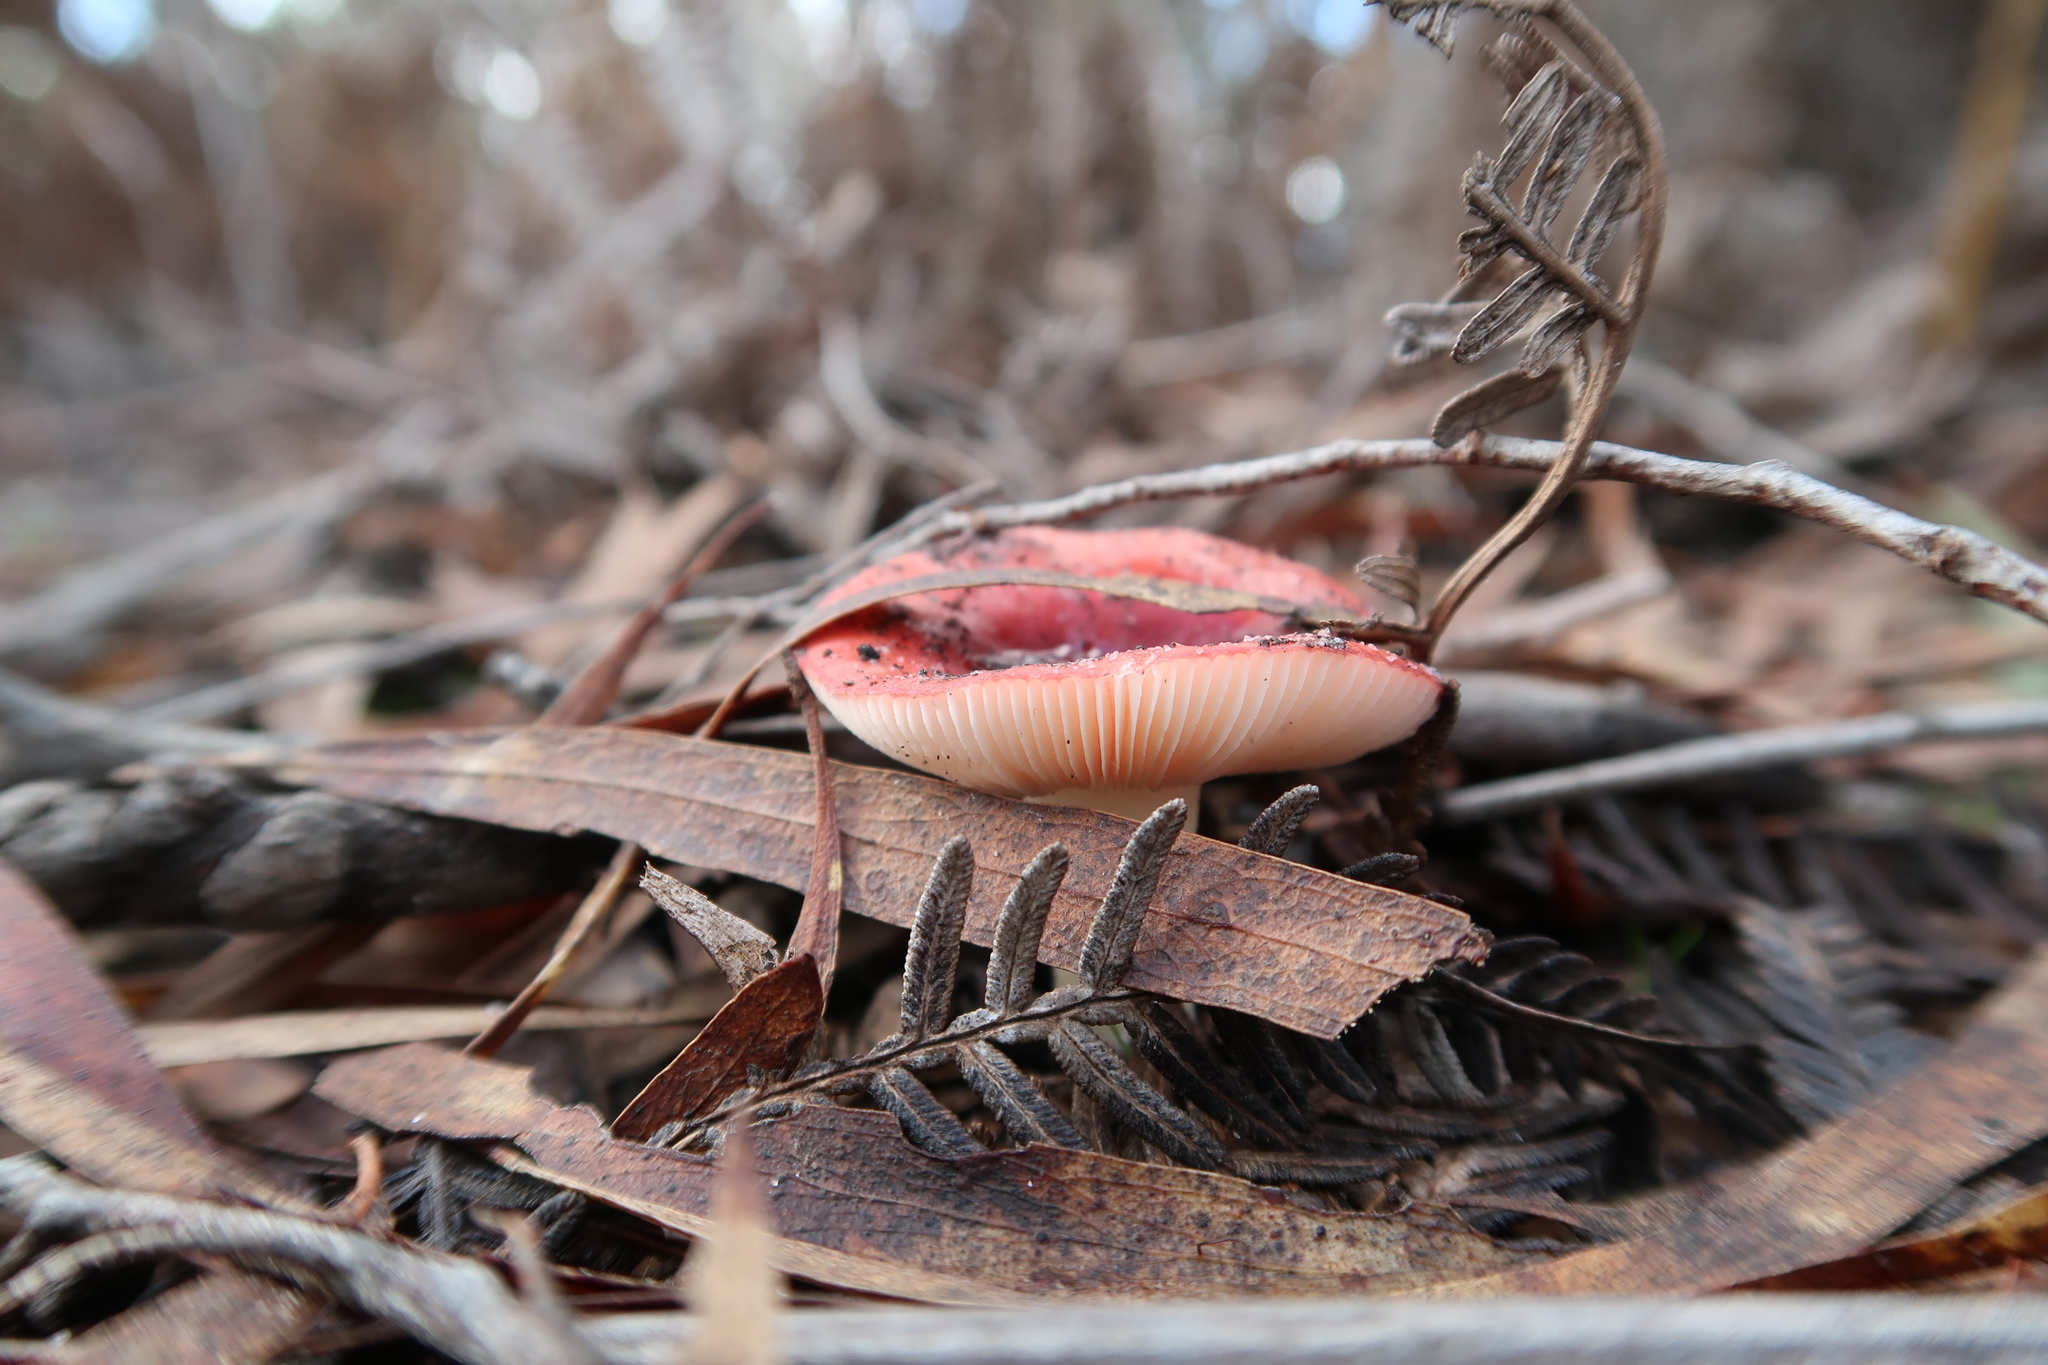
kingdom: Fungi
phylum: Basidiomycota
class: Agaricomycetes
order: Russulales
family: Russulaceae
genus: Russula
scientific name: Russula persanguinea
